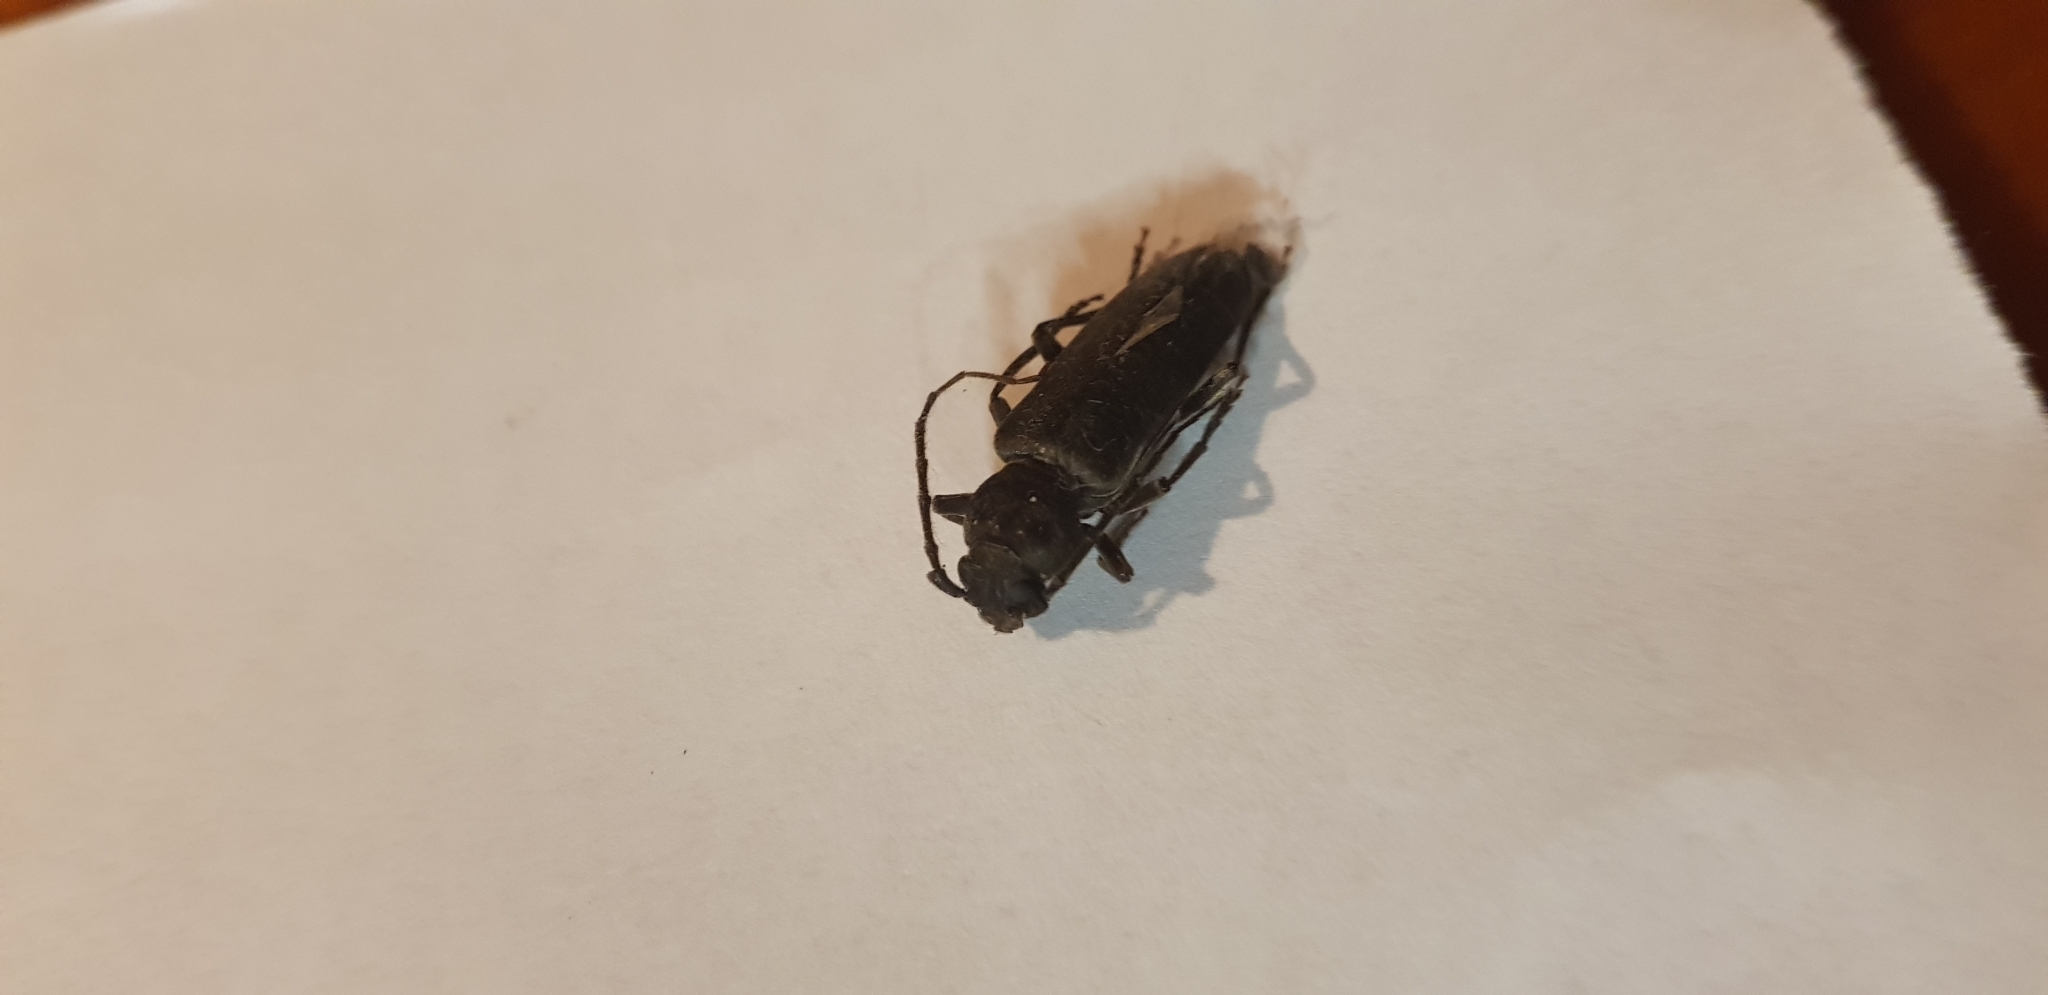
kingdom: Animalia
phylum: Arthropoda
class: Insecta
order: Coleoptera
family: Cerambycidae
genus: Arhopalus
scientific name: Arhopalus ferus
